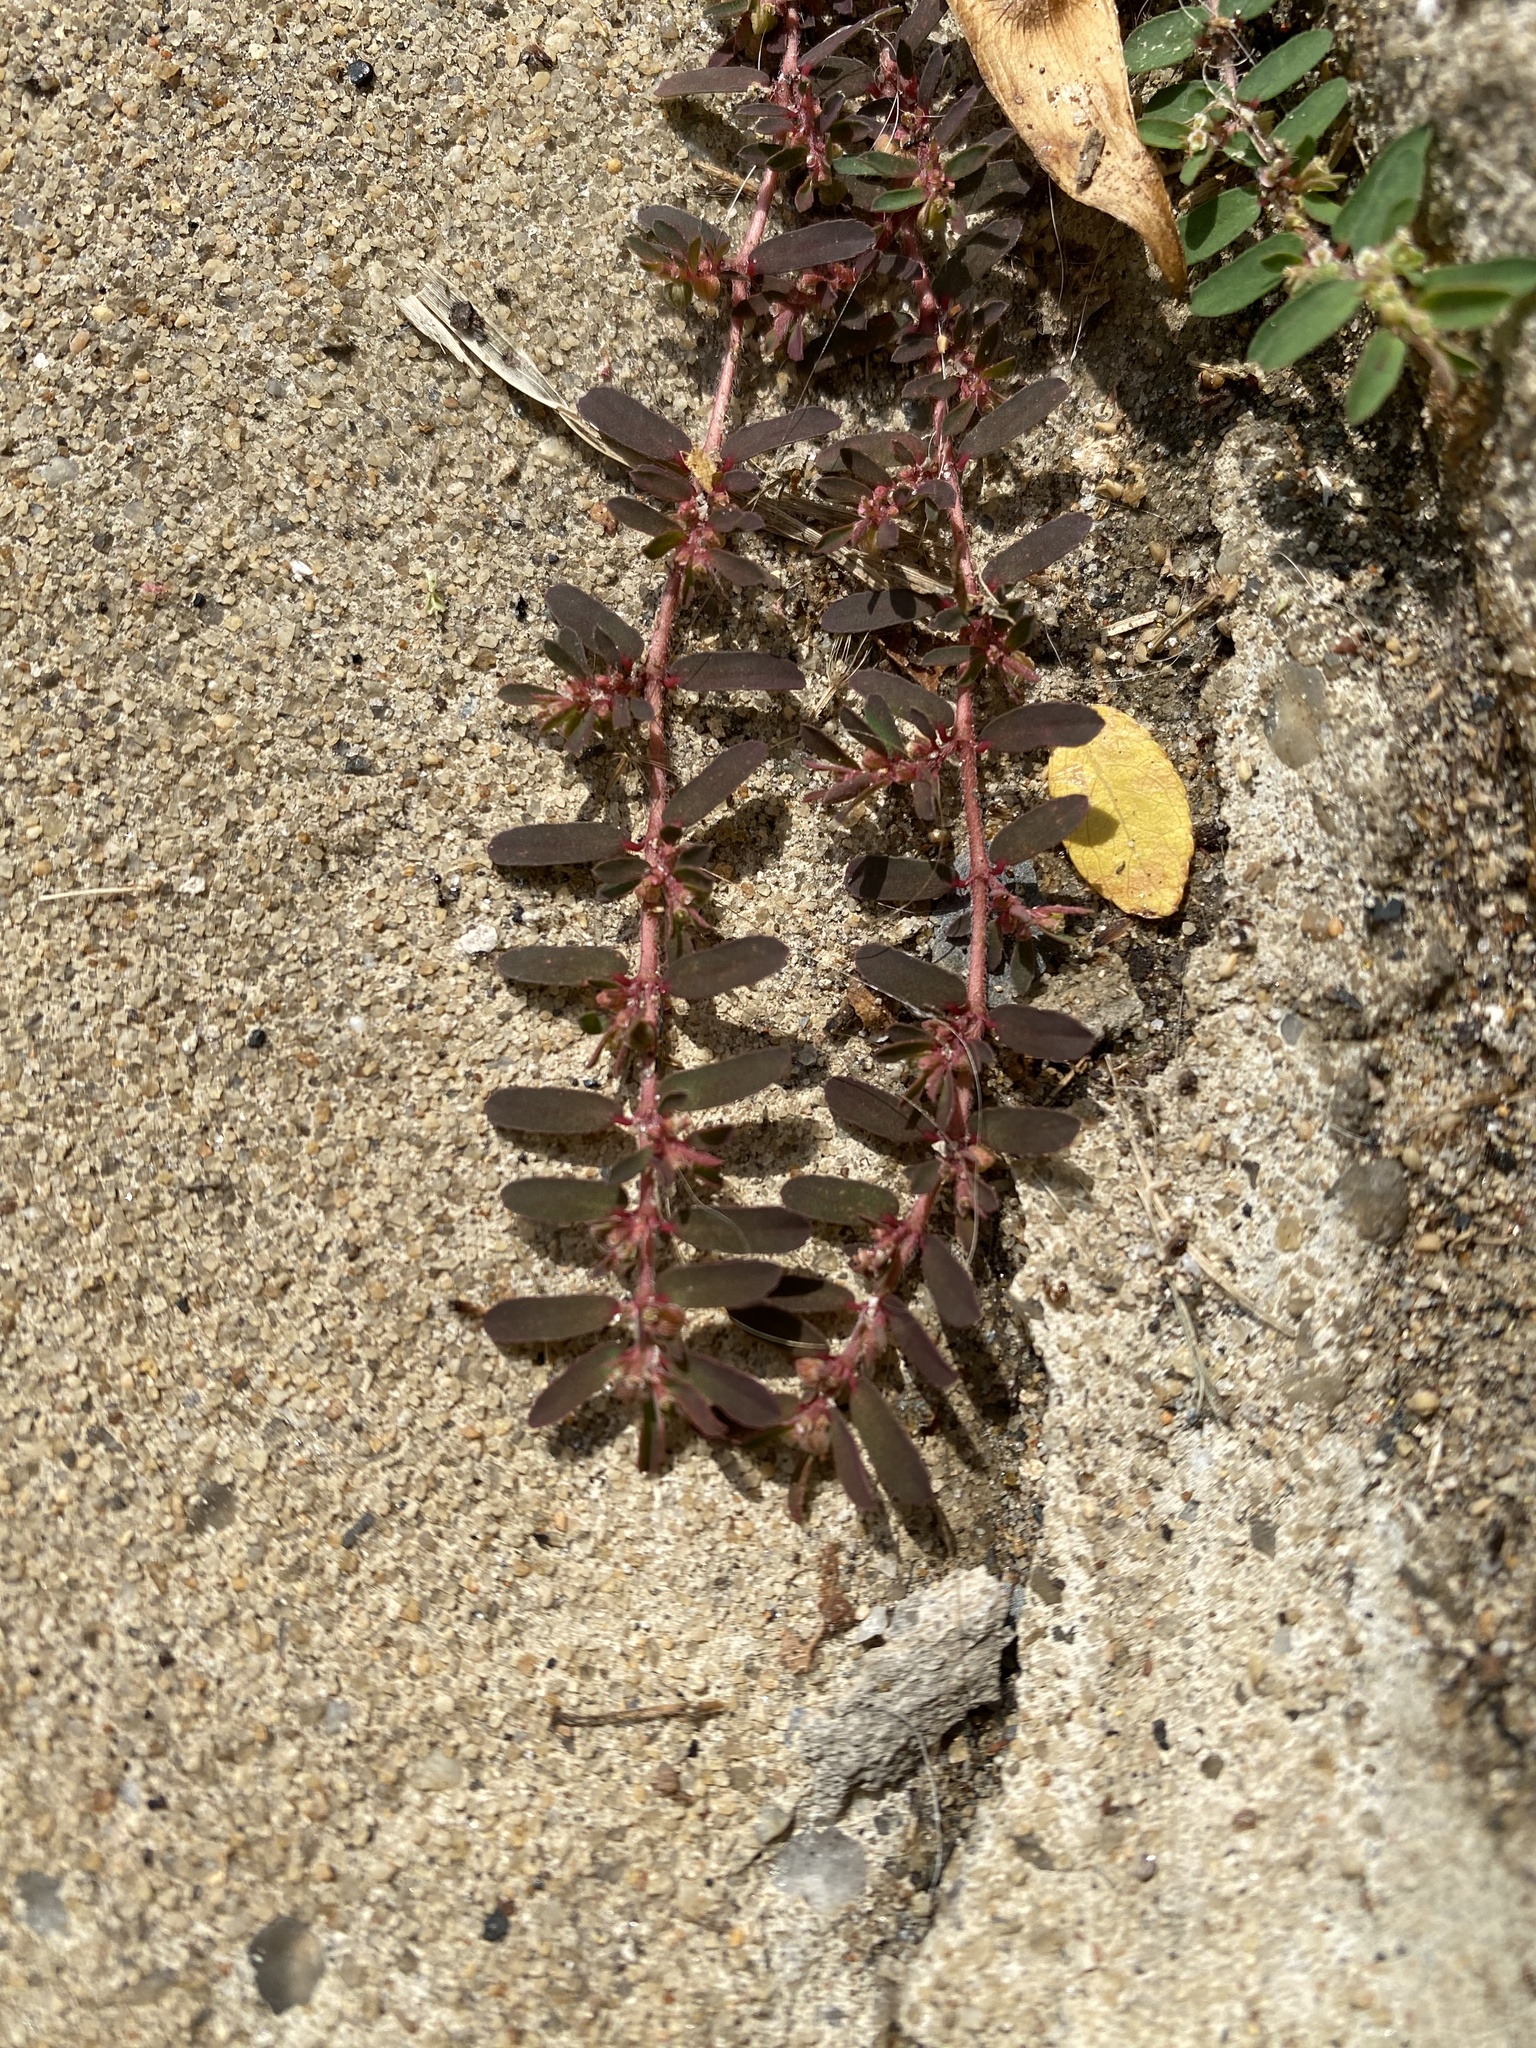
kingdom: Plantae
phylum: Tracheophyta
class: Magnoliopsida
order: Malpighiales
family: Euphorbiaceae
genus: Euphorbia
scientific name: Euphorbia maculata
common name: Spotted spurge
